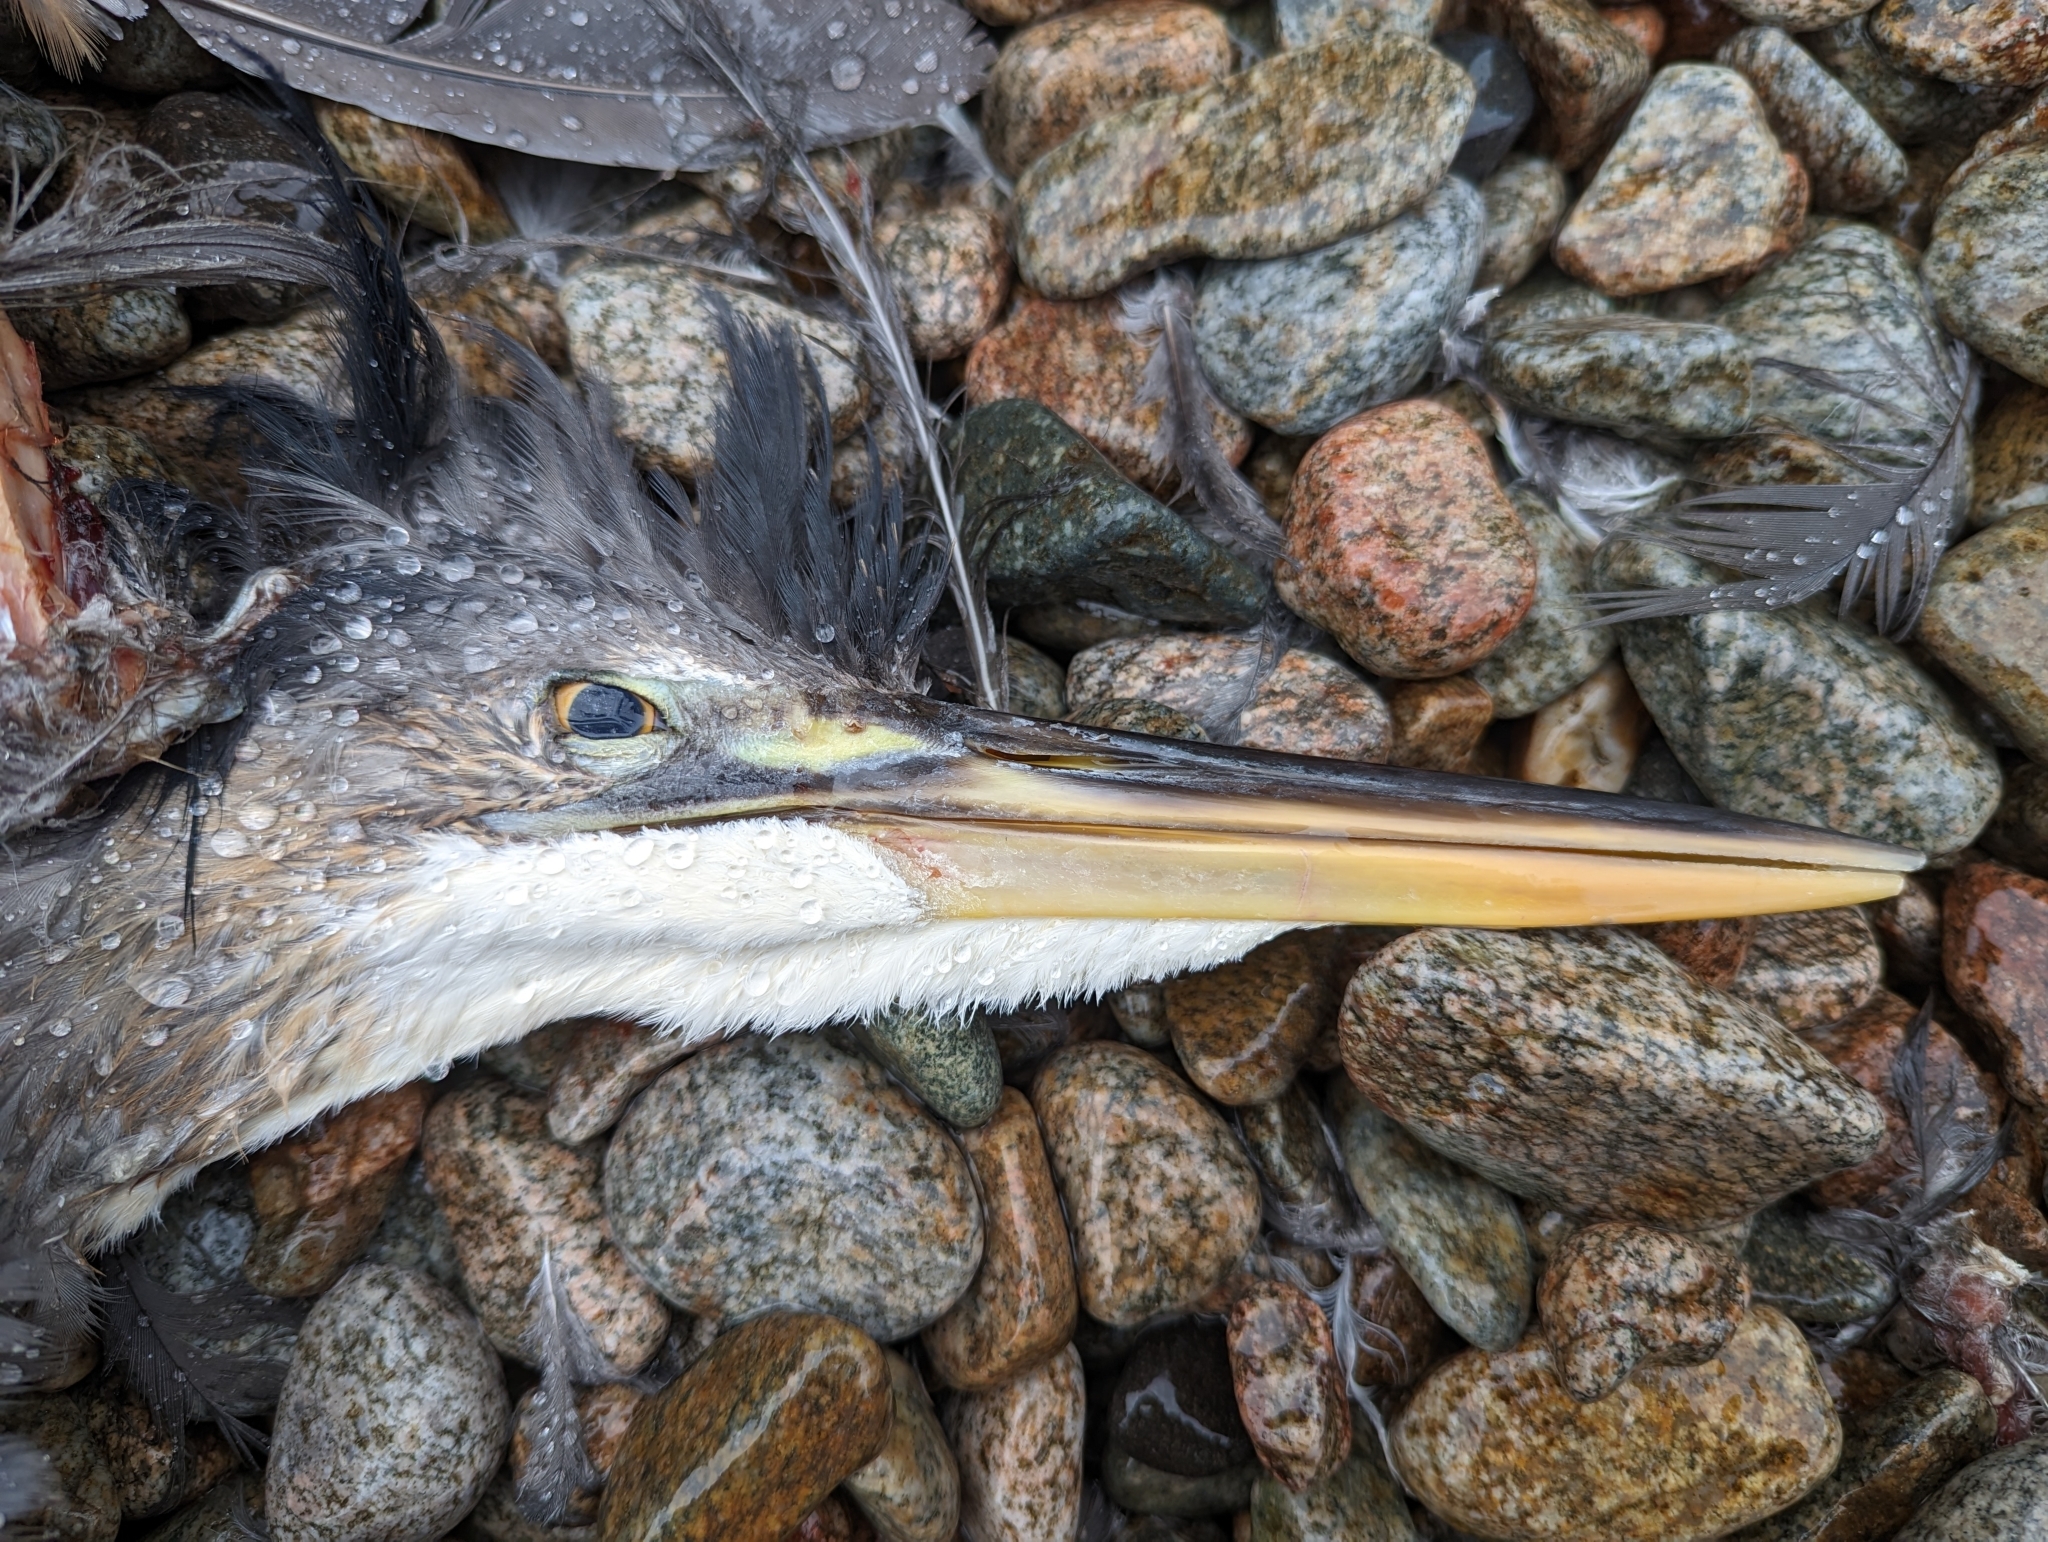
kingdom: Animalia
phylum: Chordata
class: Aves
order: Pelecaniformes
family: Ardeidae
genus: Ardea
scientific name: Ardea herodias
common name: Great blue heron
